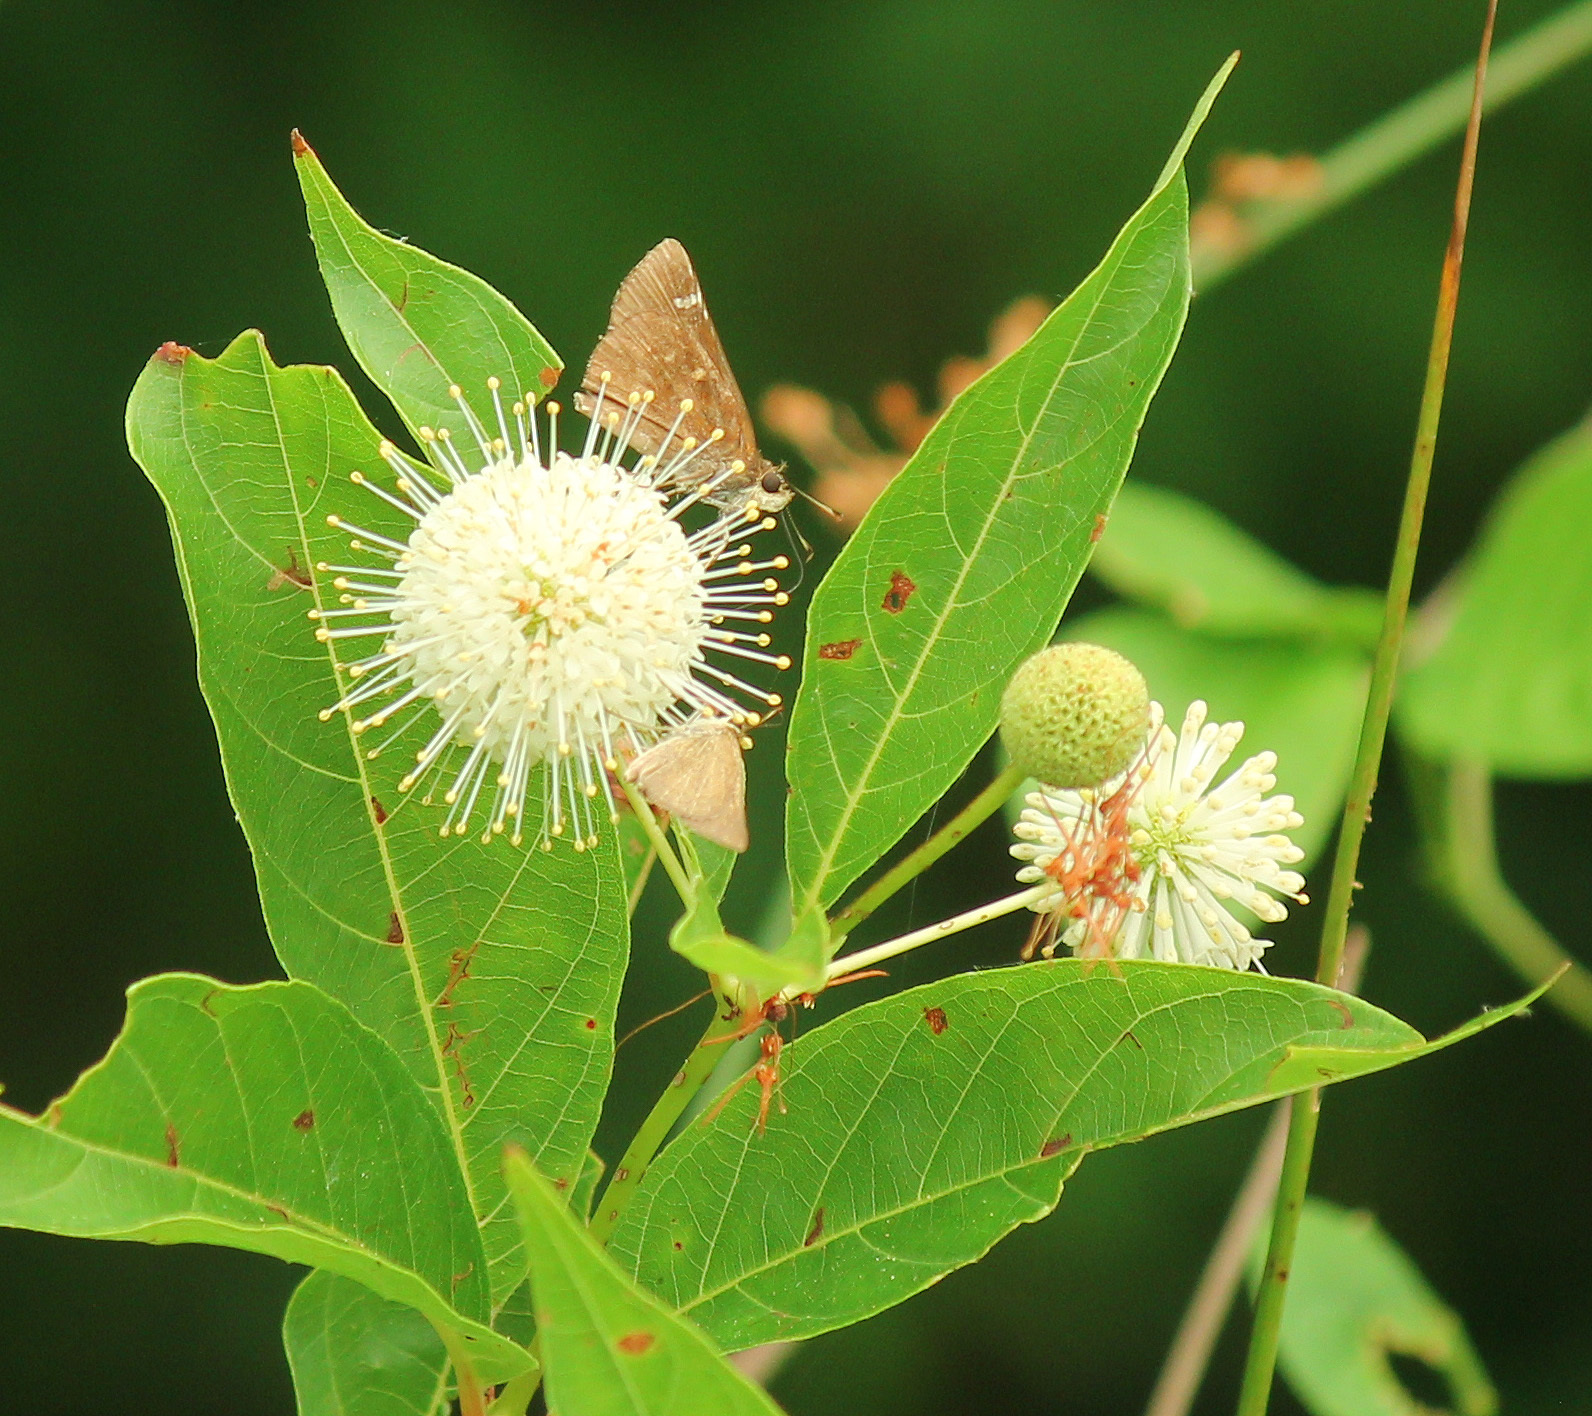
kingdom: Plantae
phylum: Tracheophyta
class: Magnoliopsida
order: Gentianales
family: Rubiaceae
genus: Cephalanthus
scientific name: Cephalanthus occidentalis
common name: Button-willow
